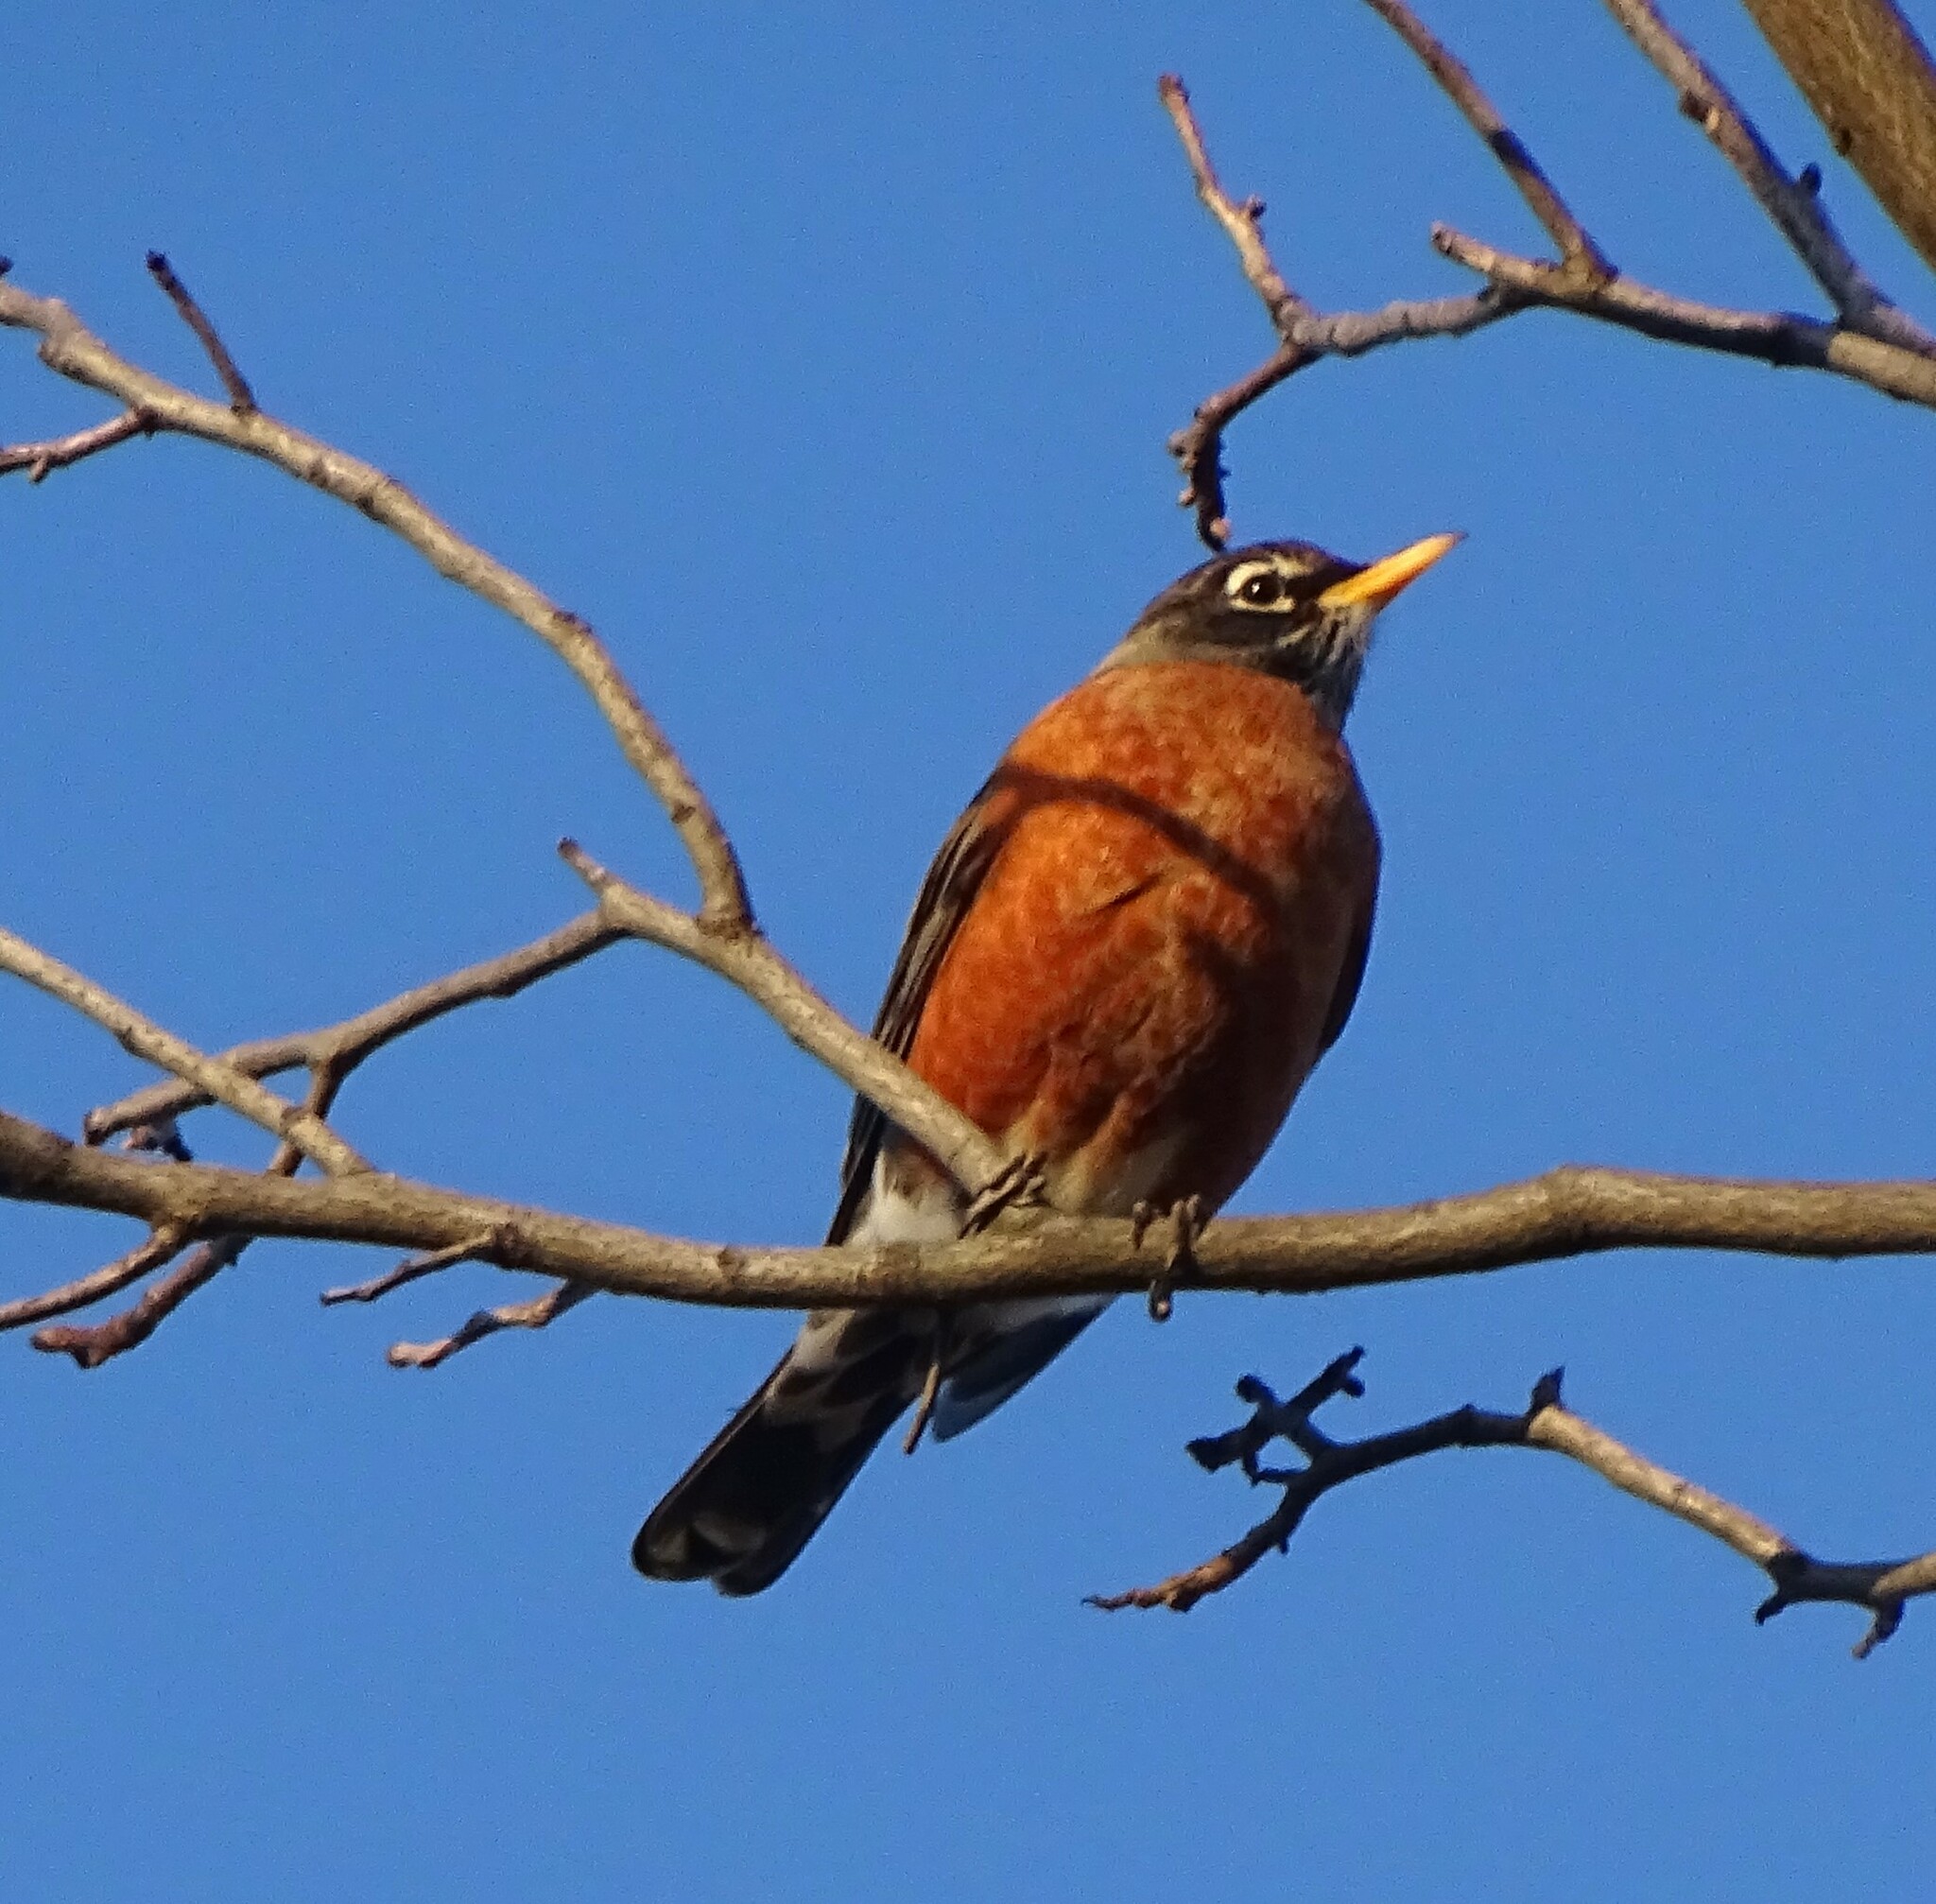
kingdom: Animalia
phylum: Chordata
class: Aves
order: Passeriformes
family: Turdidae
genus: Turdus
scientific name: Turdus migratorius
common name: American robin
